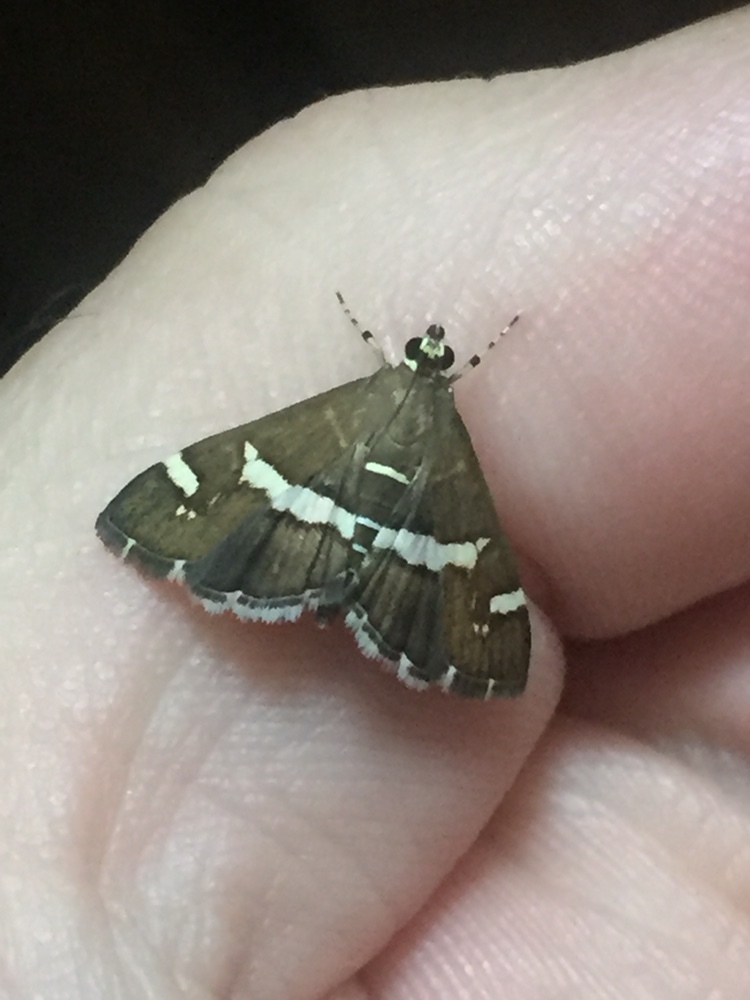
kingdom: Animalia
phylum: Arthropoda
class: Insecta
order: Lepidoptera
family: Crambidae
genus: Spoladea
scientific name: Spoladea recurvalis
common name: Beet webworm moth
